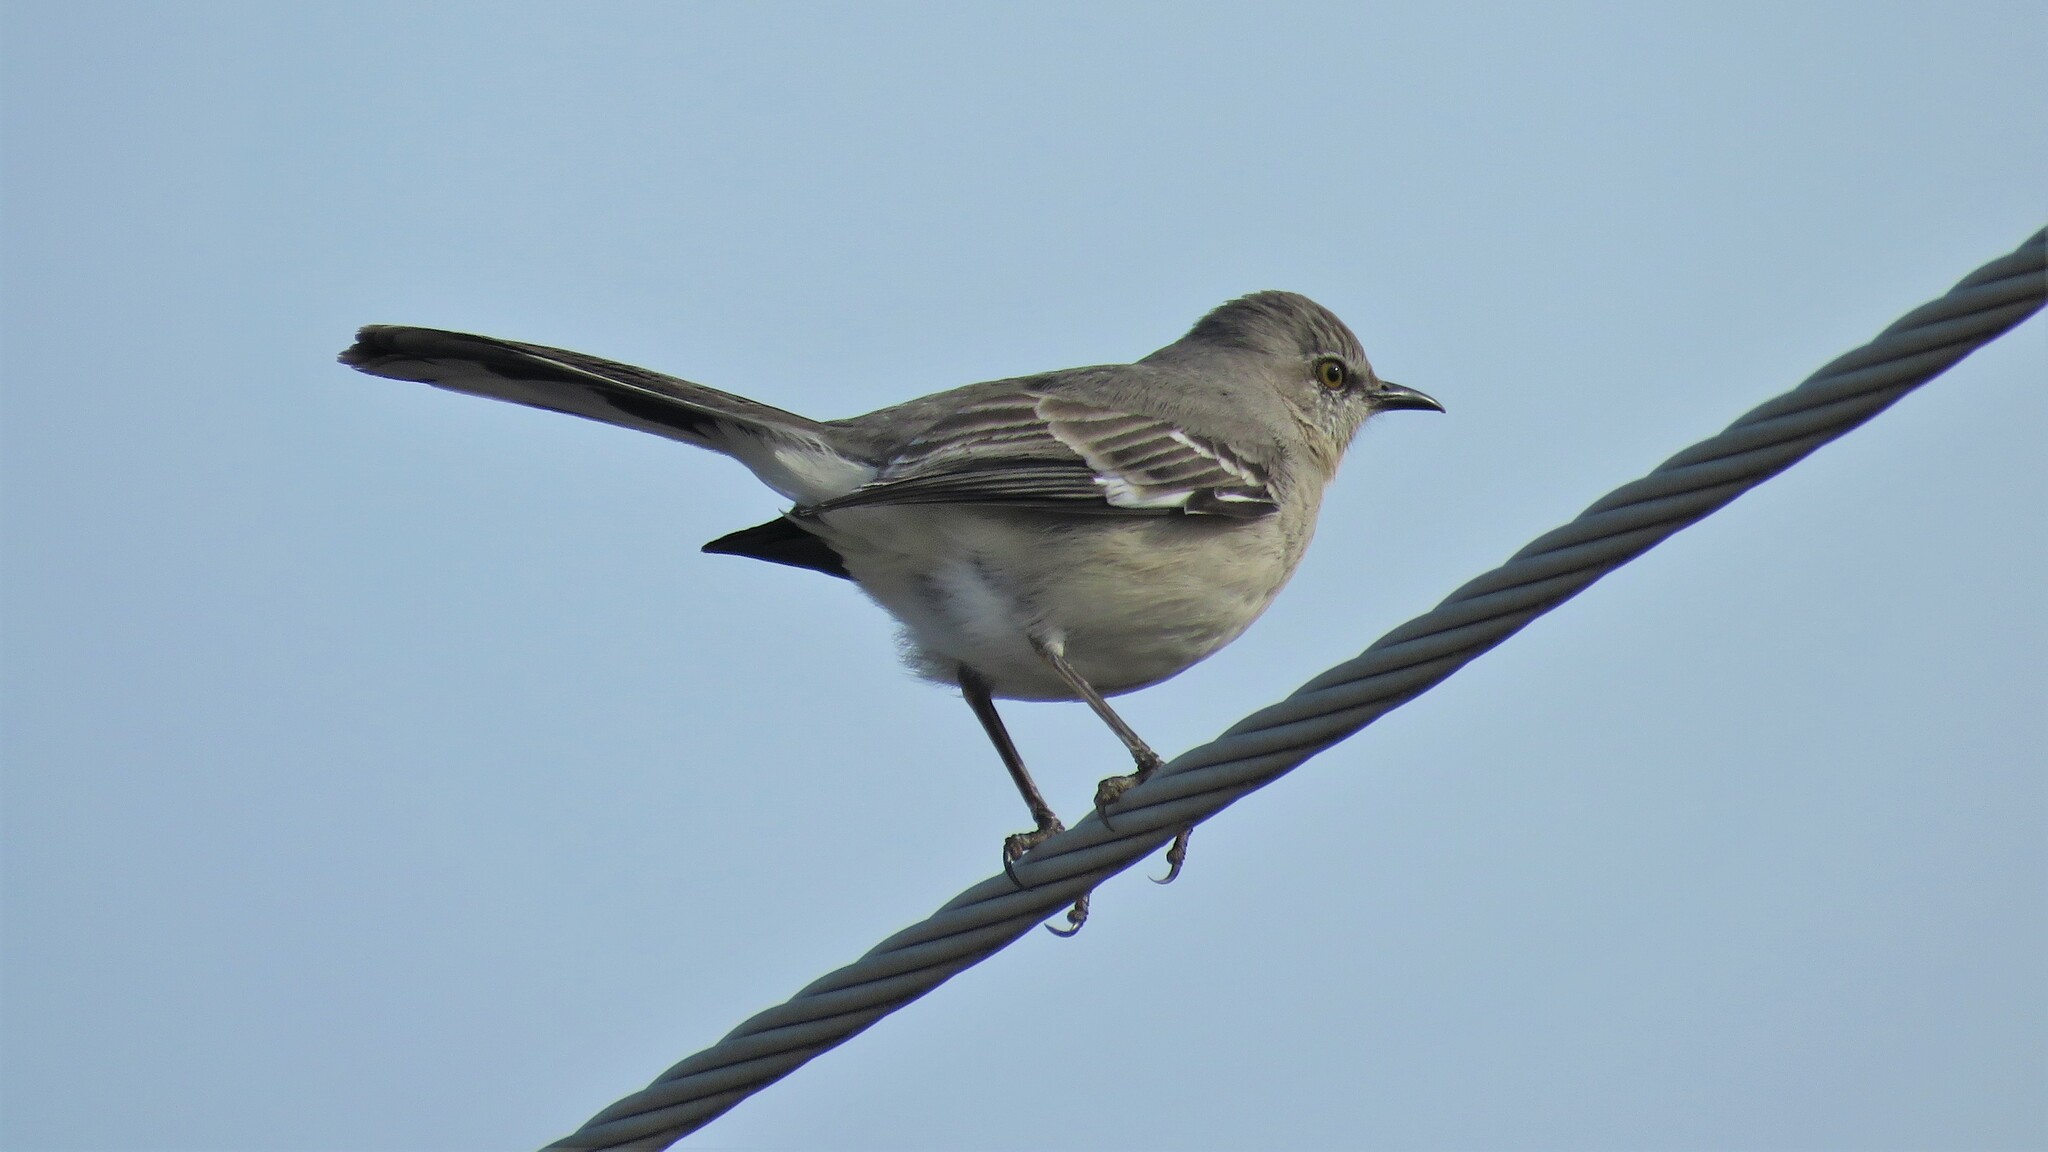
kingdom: Animalia
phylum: Chordata
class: Aves
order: Passeriformes
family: Mimidae
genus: Mimus
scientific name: Mimus polyglottos
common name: Northern mockingbird
